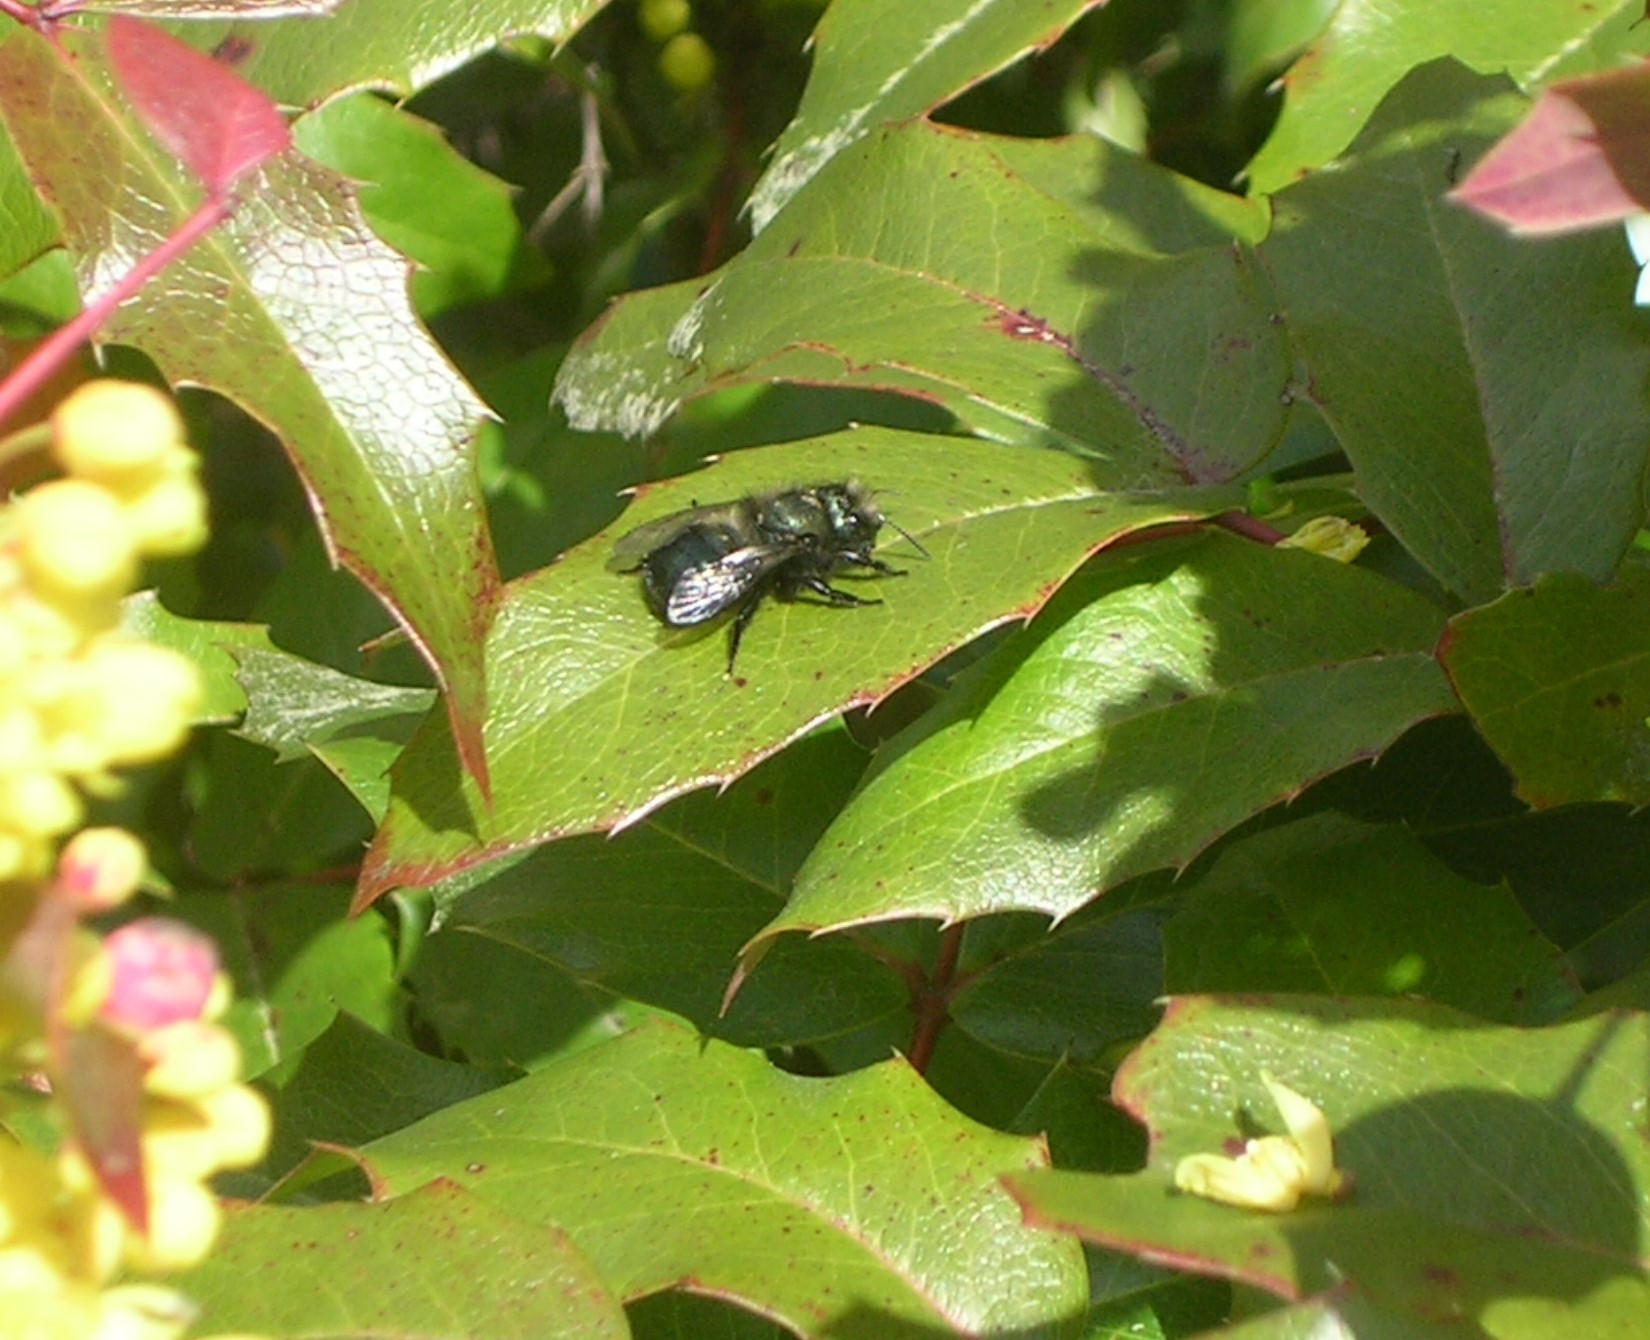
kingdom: Animalia
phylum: Arthropoda
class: Insecta
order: Hymenoptera
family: Megachilidae
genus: Osmia
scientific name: Osmia lignaria
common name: Blue orchard bee
